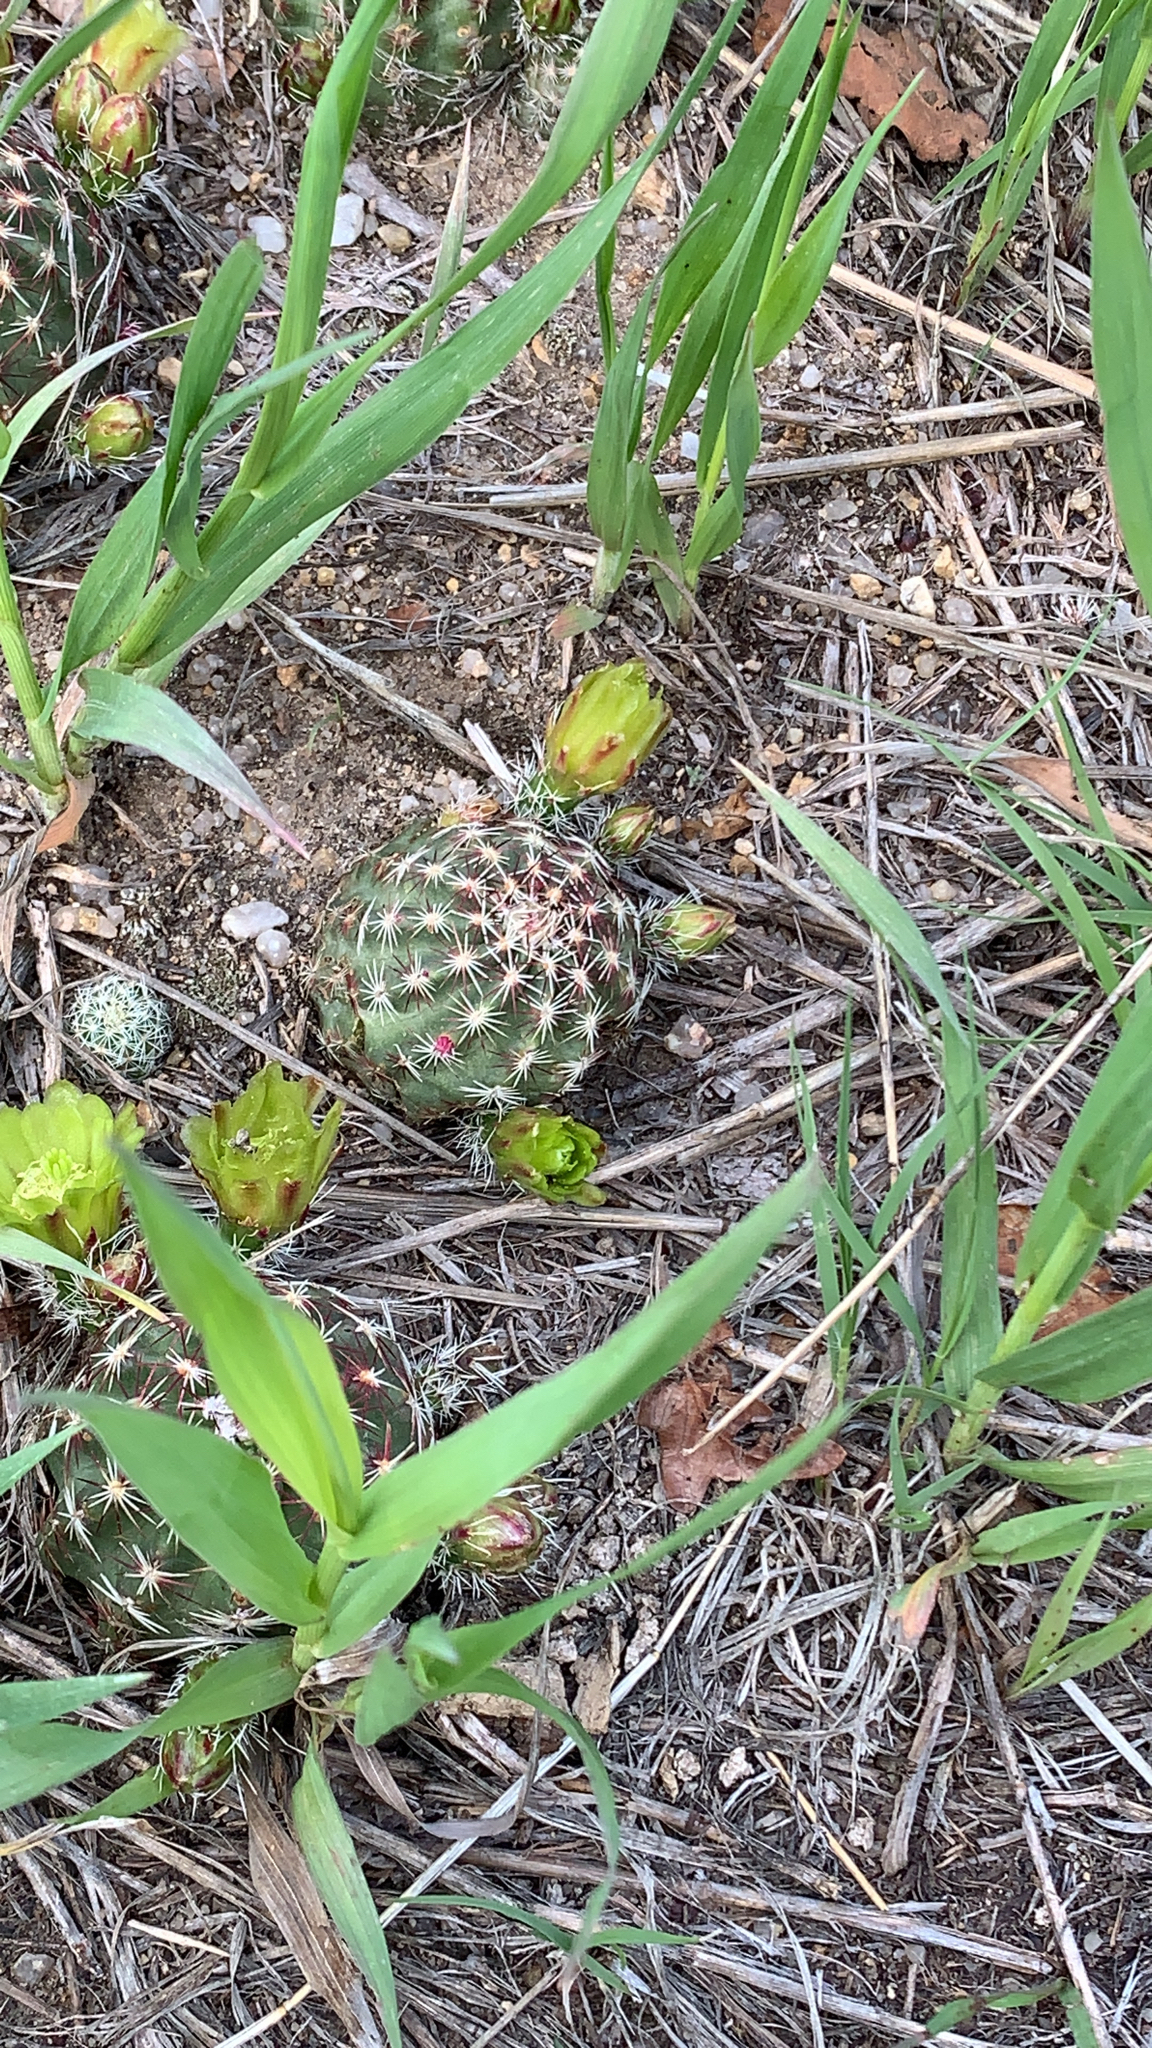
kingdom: Plantae
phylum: Tracheophyta
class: Magnoliopsida
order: Caryophyllales
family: Cactaceae
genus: Echinocereus
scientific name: Echinocereus viridiflorus
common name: Nylon hedgehog cactus
